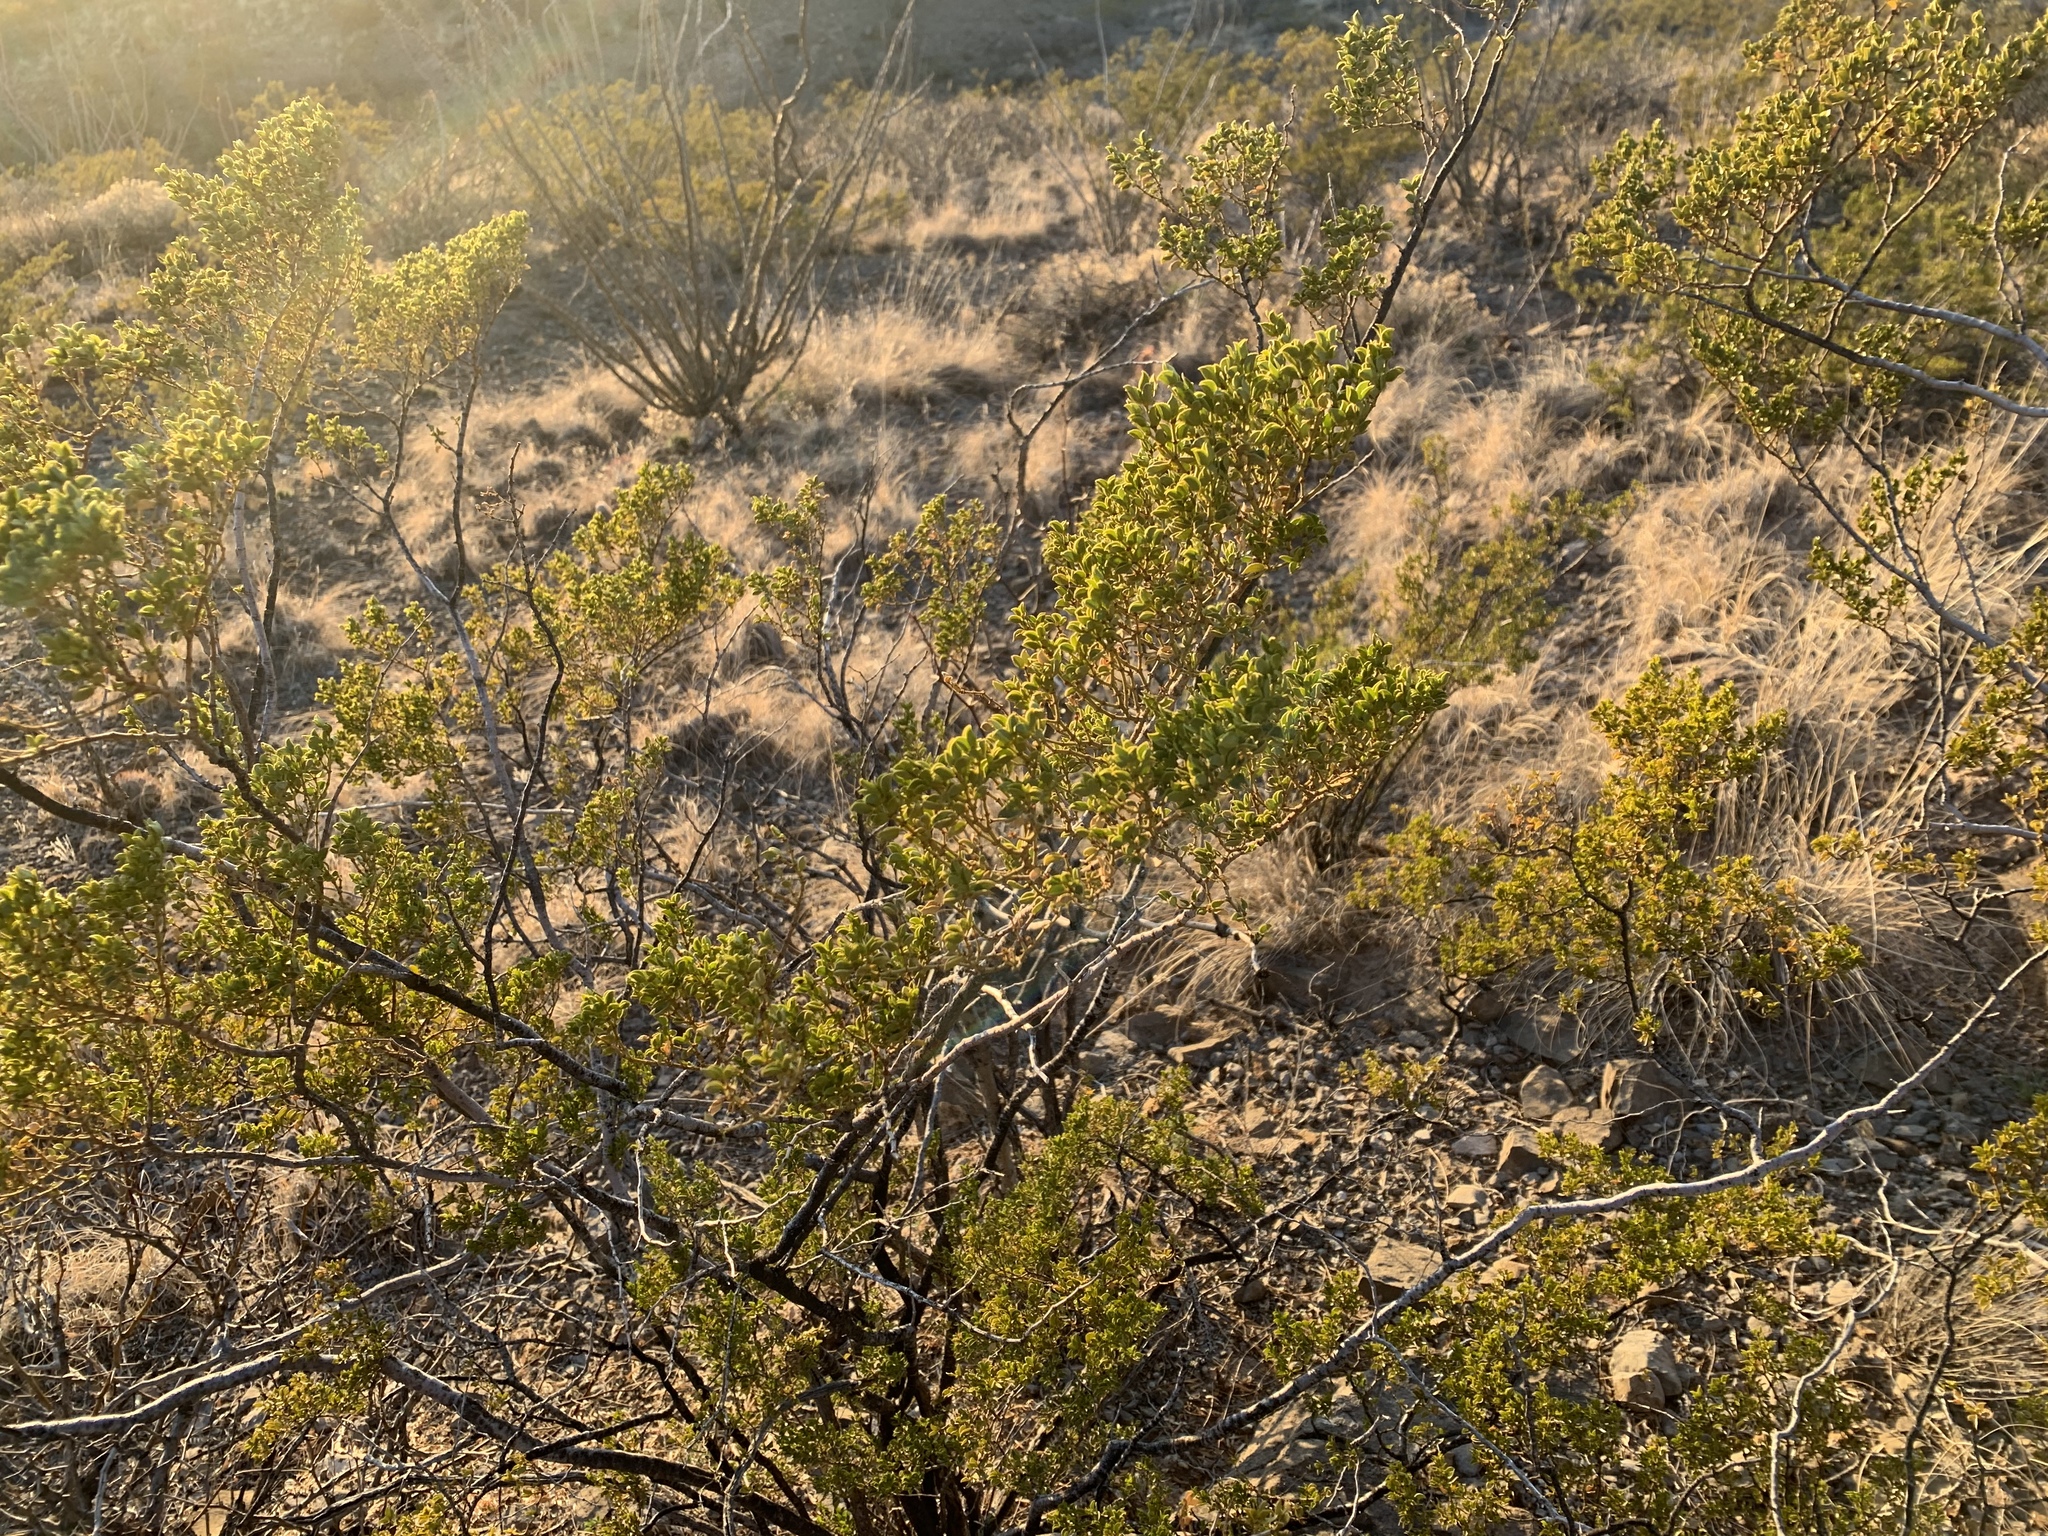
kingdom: Plantae
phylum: Tracheophyta
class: Magnoliopsida
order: Zygophyllales
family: Zygophyllaceae
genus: Larrea
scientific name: Larrea tridentata
